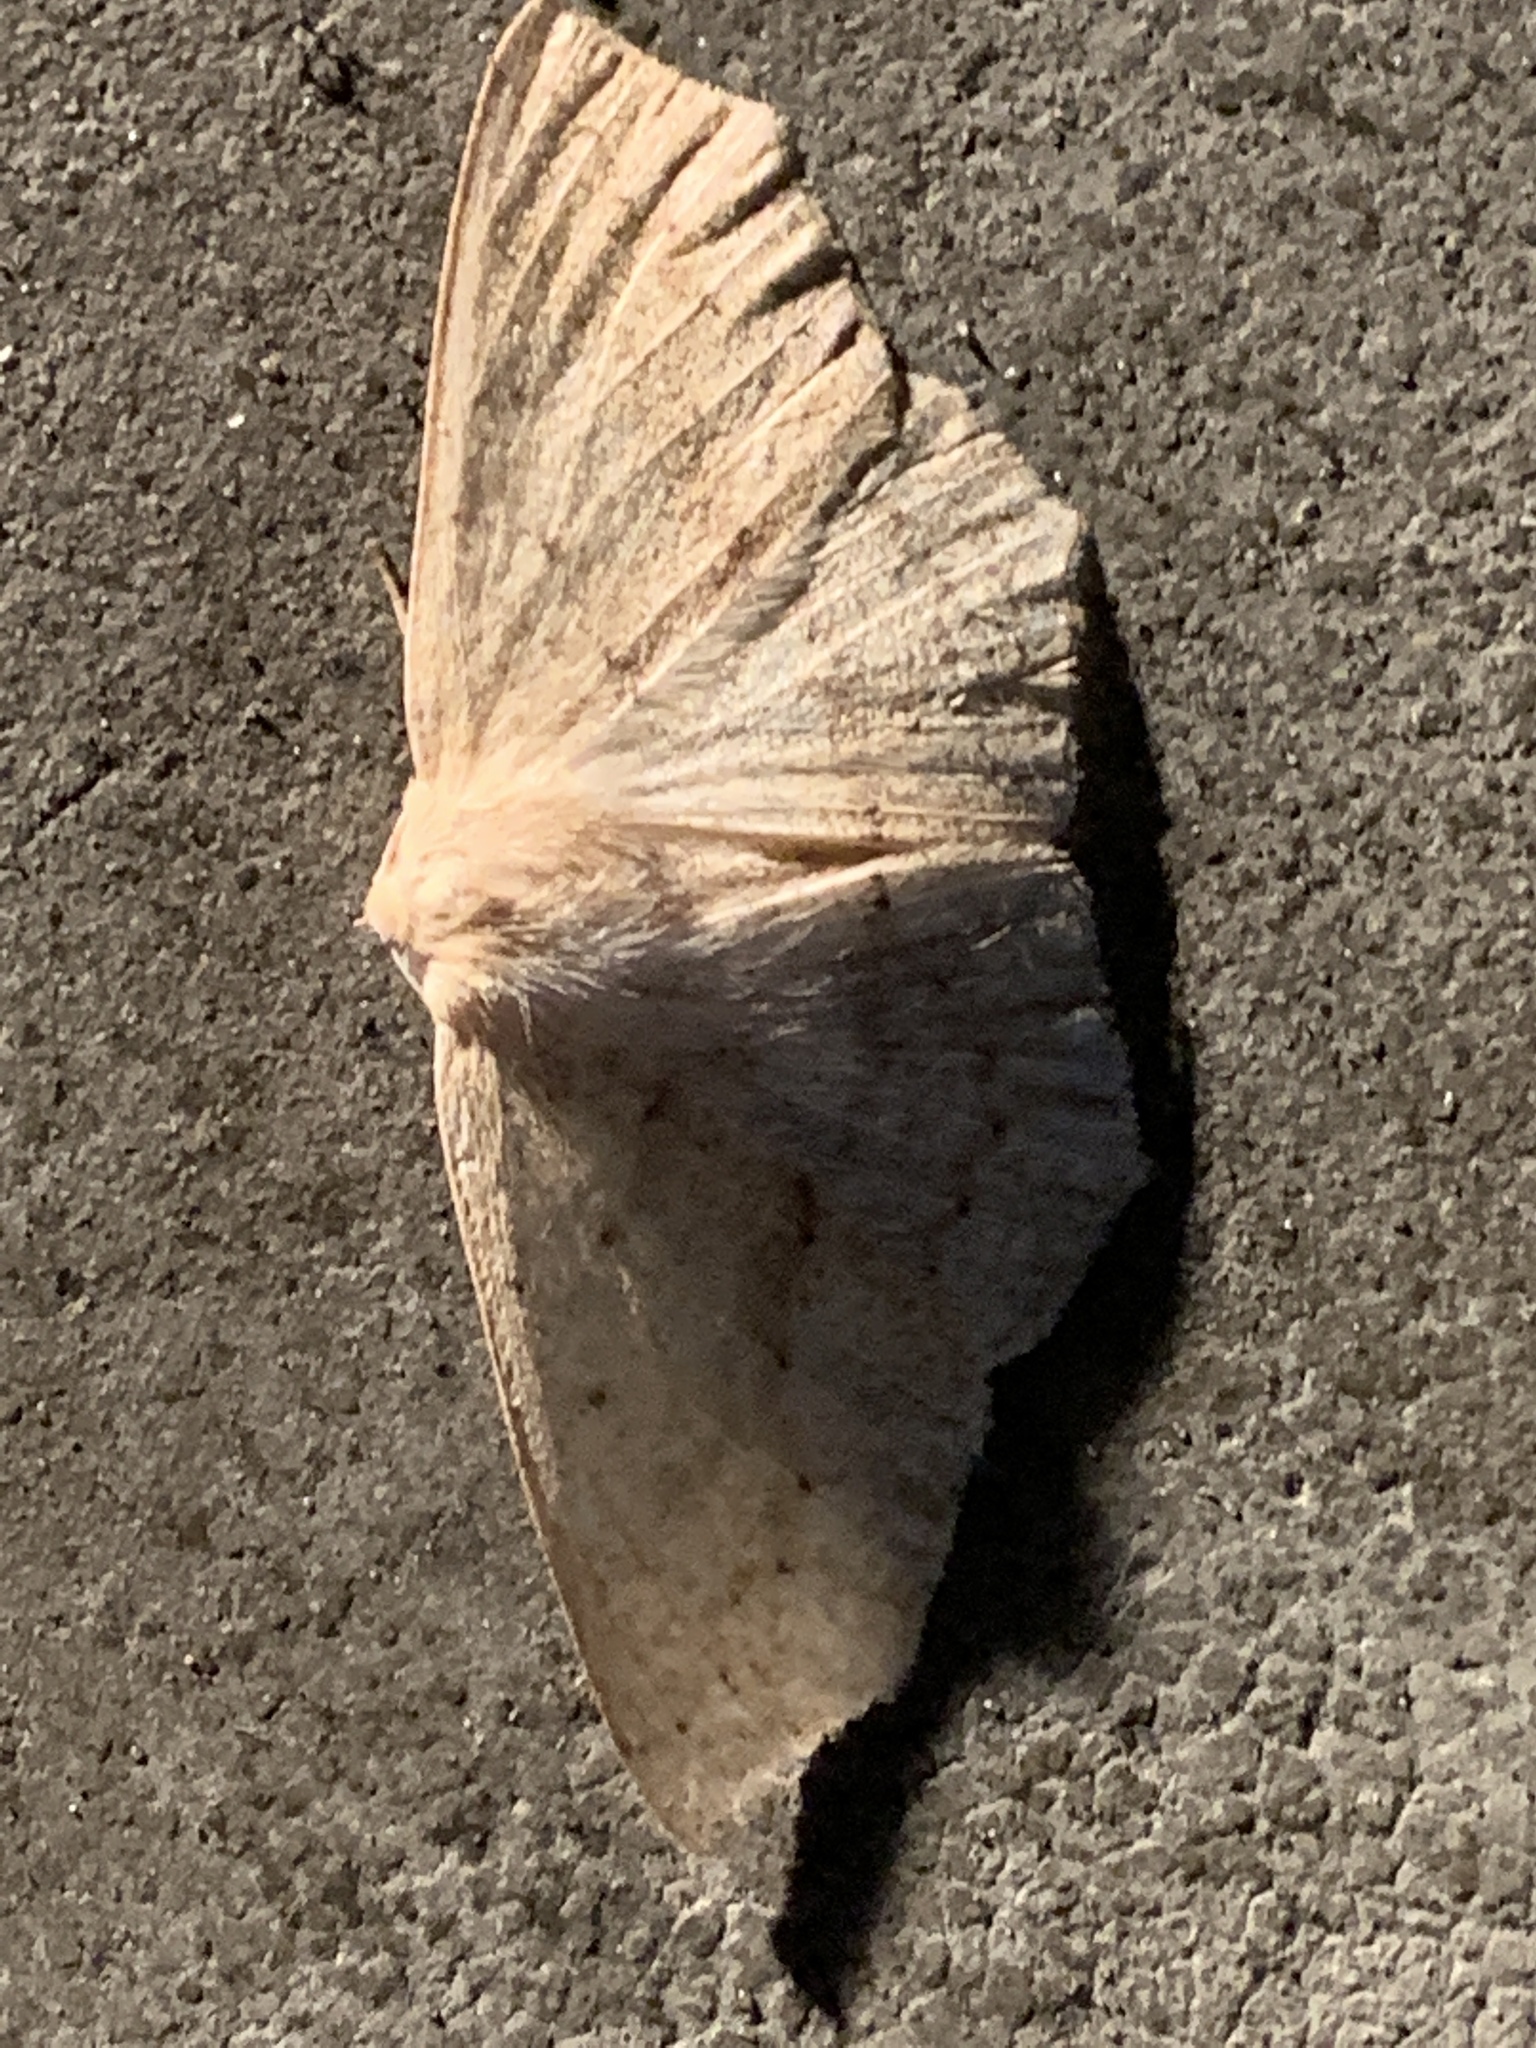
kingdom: Animalia
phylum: Arthropoda
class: Insecta
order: Lepidoptera
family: Geometridae
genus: Sabulodes
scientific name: Sabulodes aegrotata
